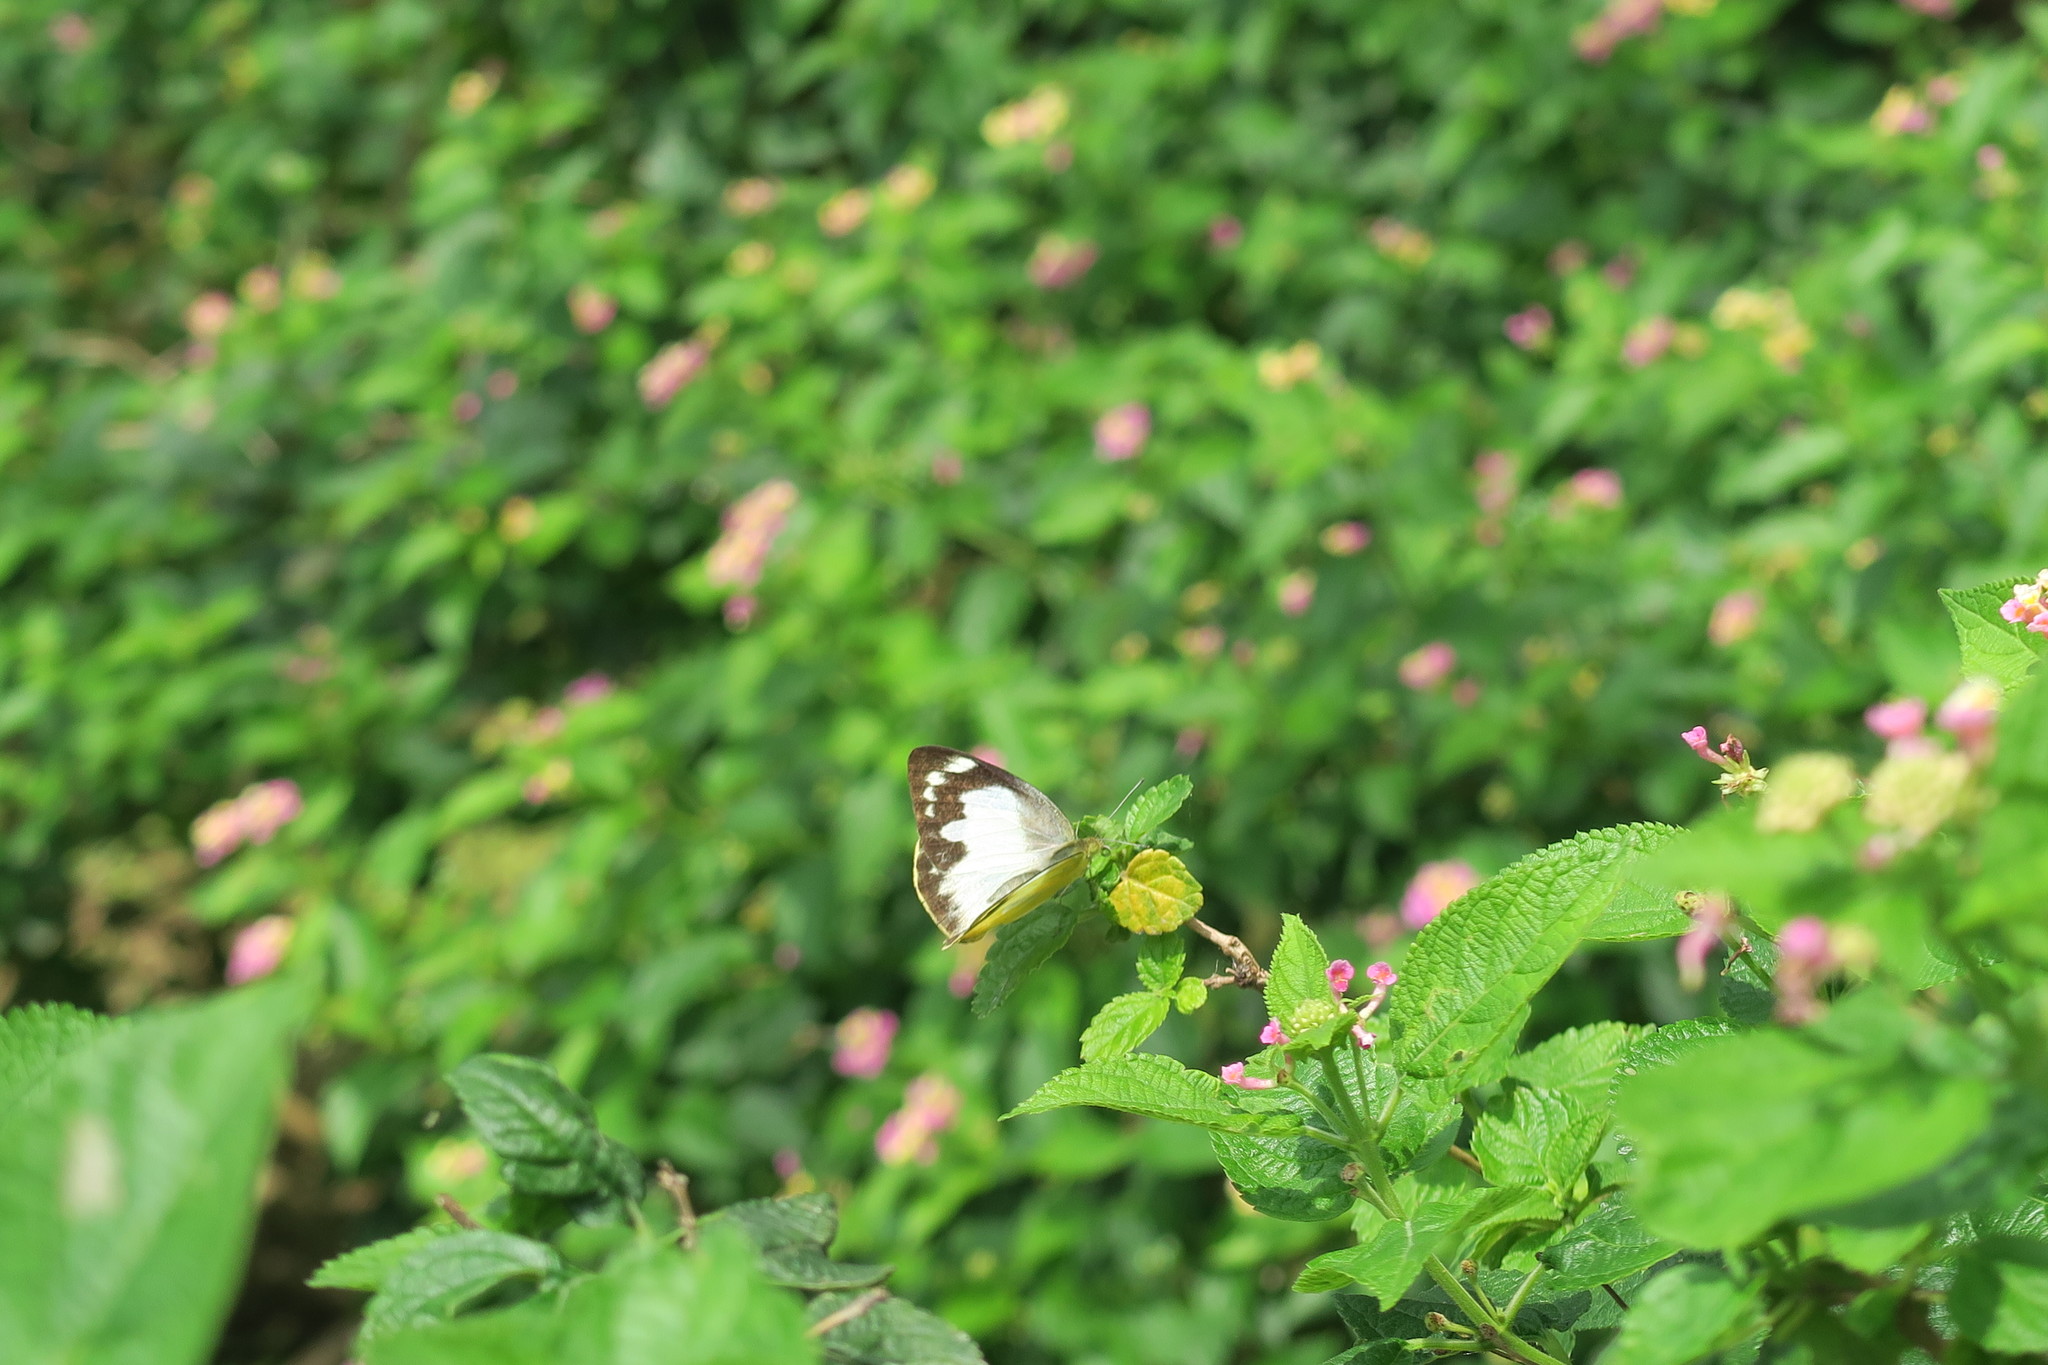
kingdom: Animalia
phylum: Arthropoda
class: Insecta
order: Lepidoptera
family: Pieridae
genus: Appias
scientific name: Appias paulina
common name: Ceylon lesser albatross
